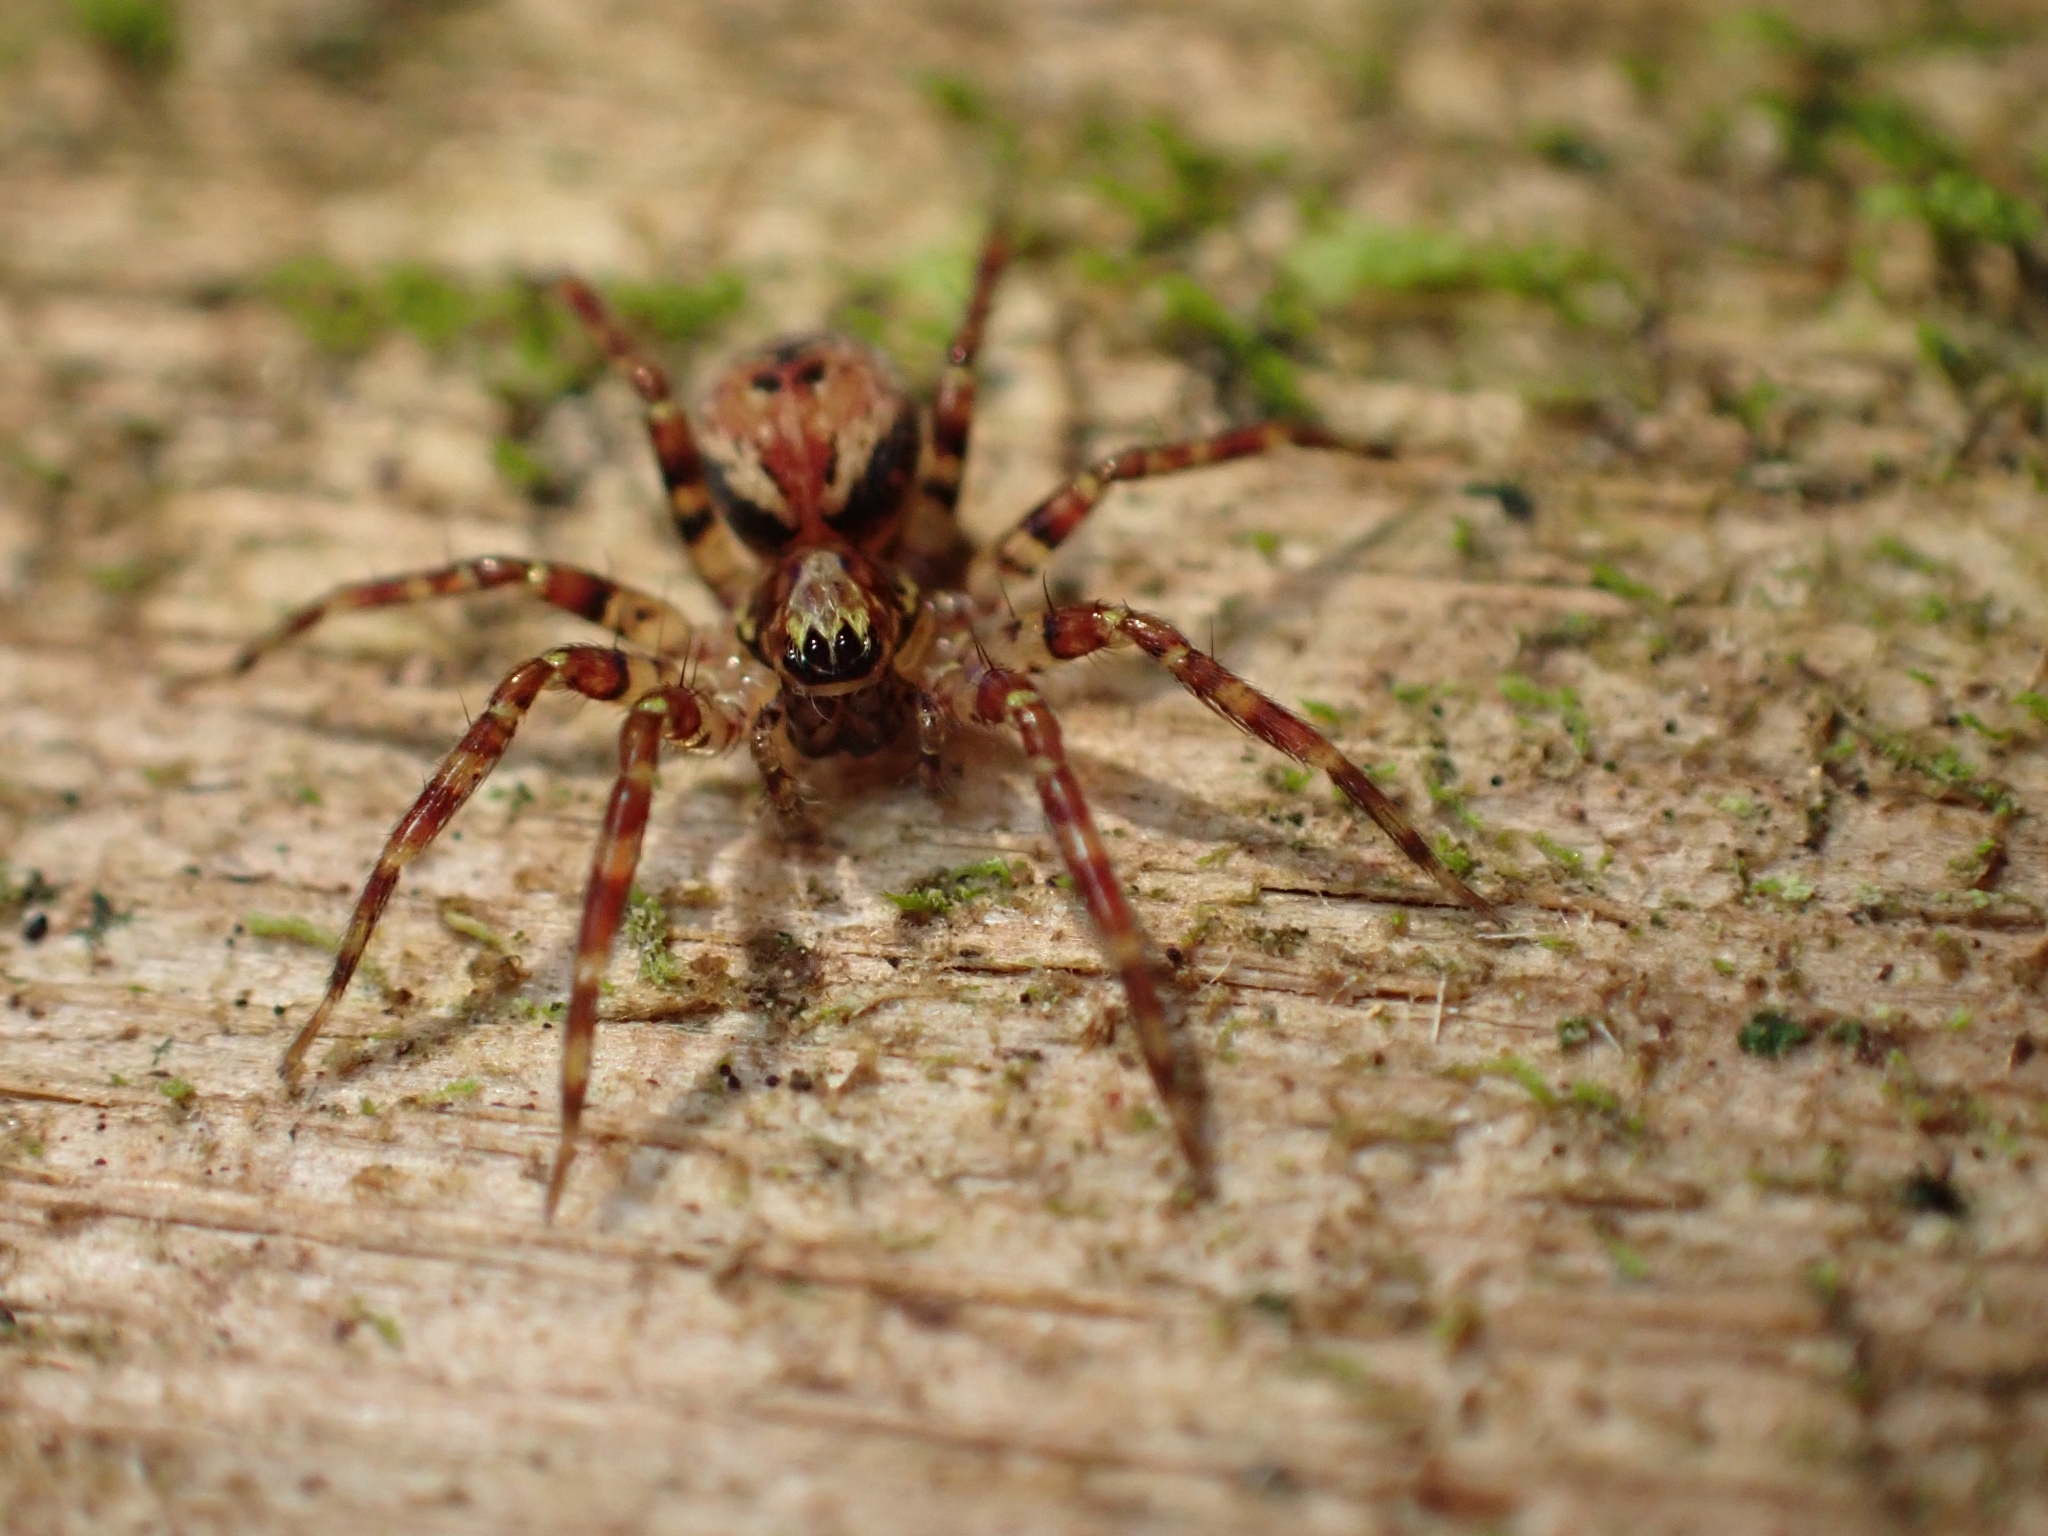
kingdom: Animalia
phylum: Arthropoda
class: Arachnida
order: Araneae
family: Cybaeidae
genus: Dirksia
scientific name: Dirksia cinctipes
